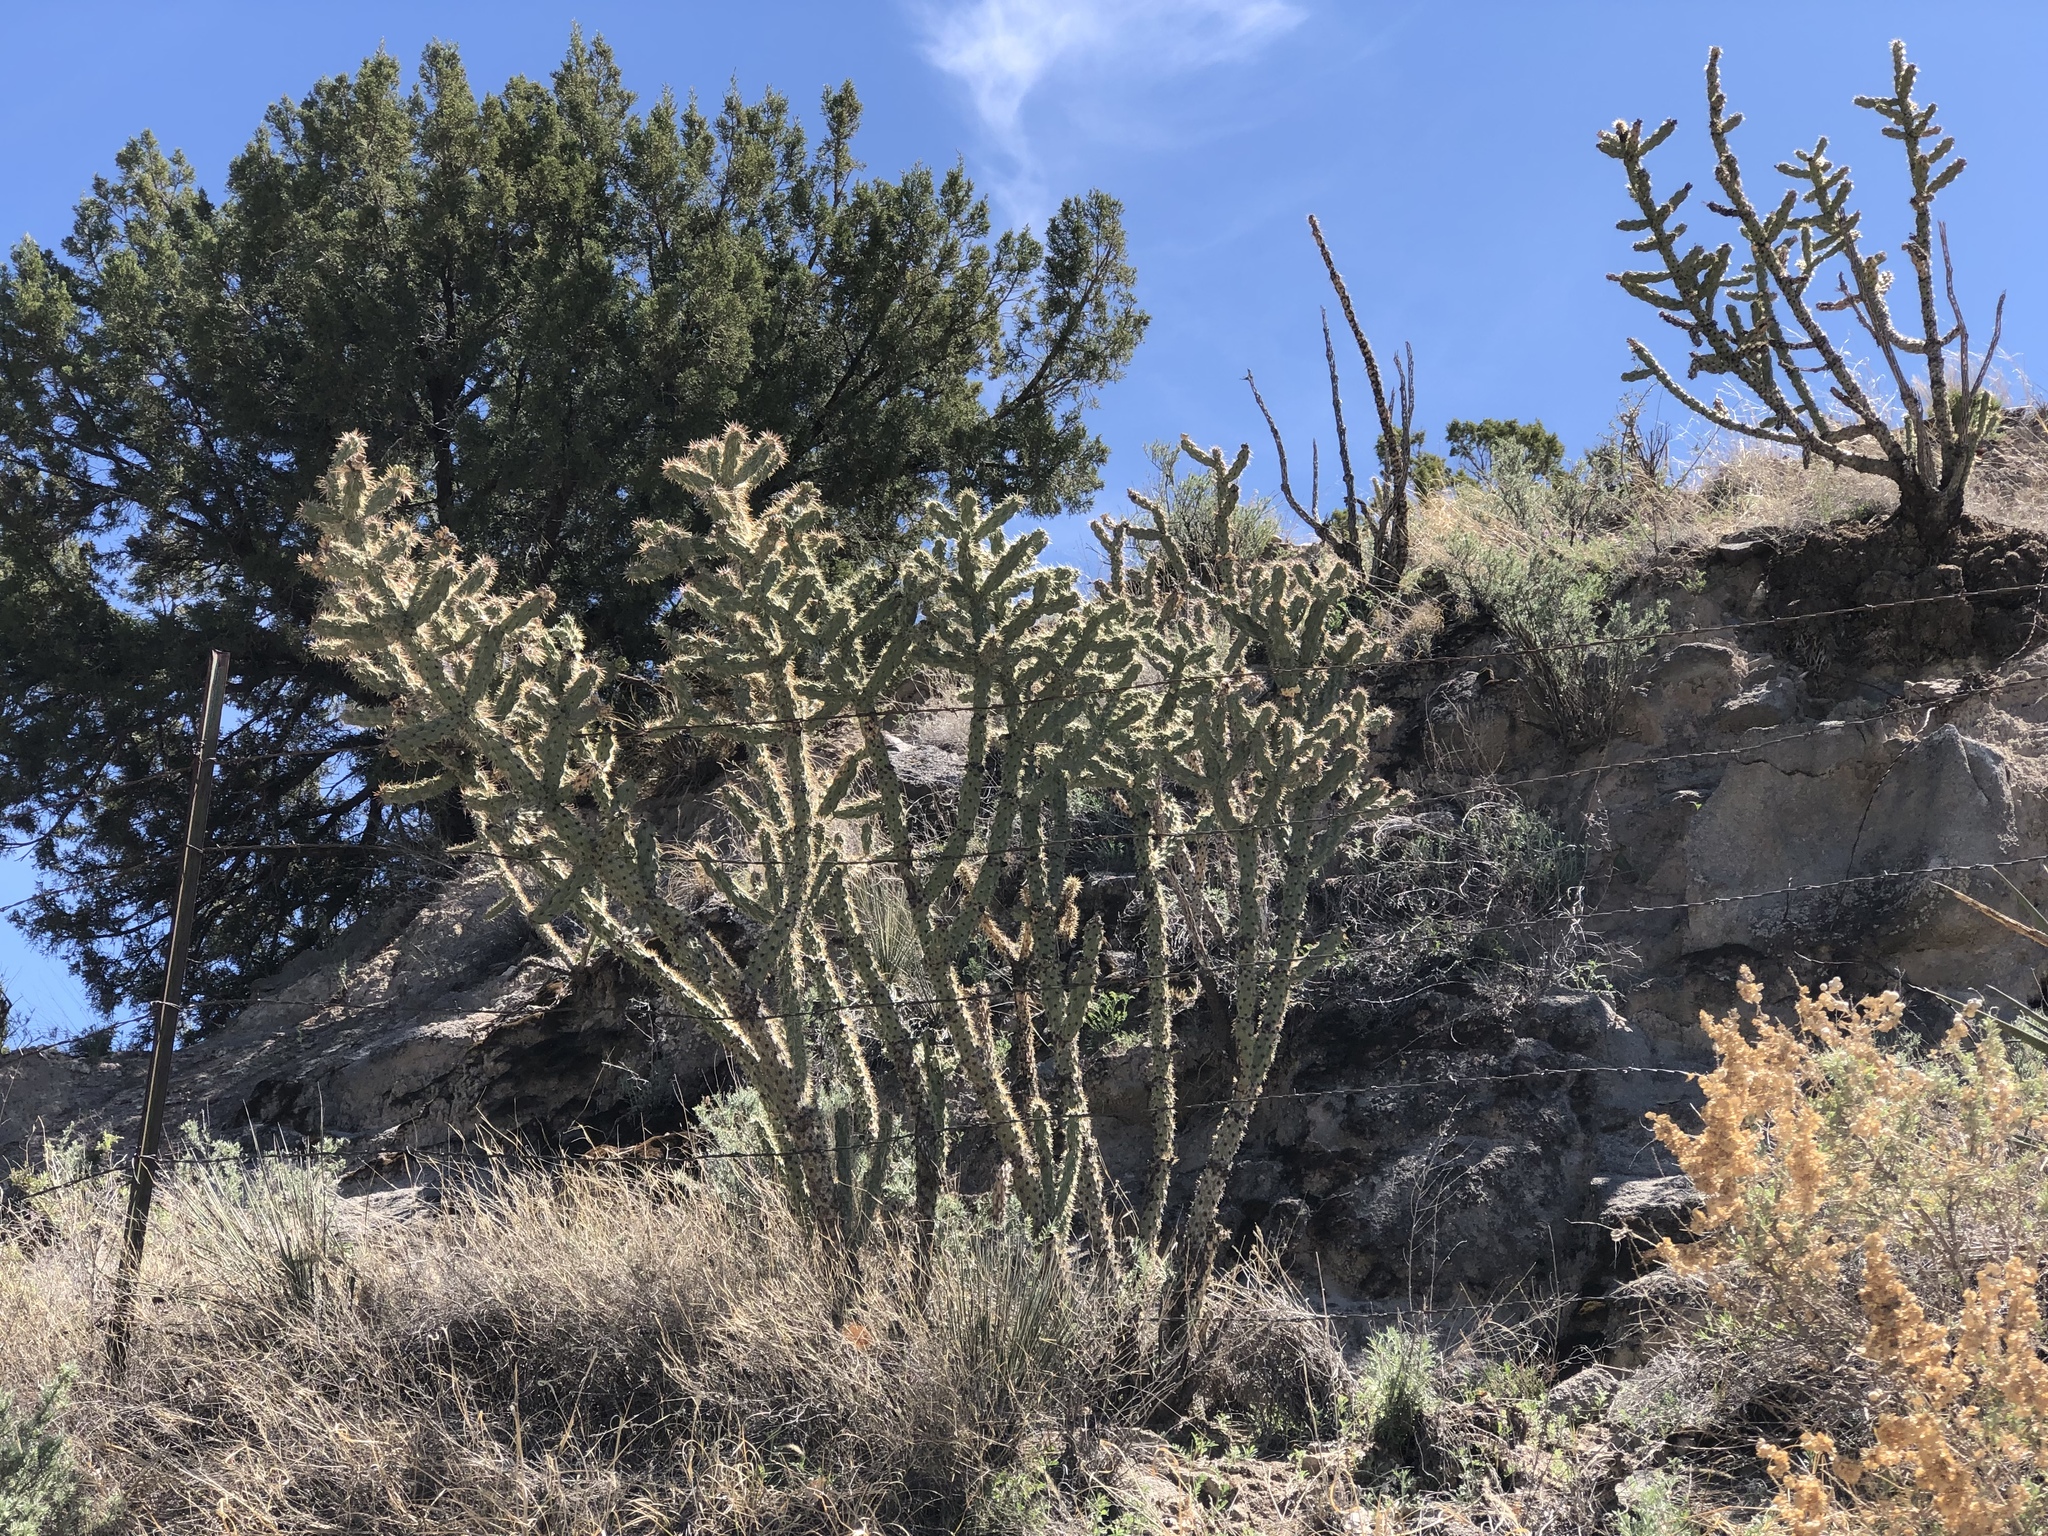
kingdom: Plantae
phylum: Tracheophyta
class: Magnoliopsida
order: Caryophyllales
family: Cactaceae
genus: Cylindropuntia
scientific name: Cylindropuntia imbricata
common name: Candelabrum cactus
